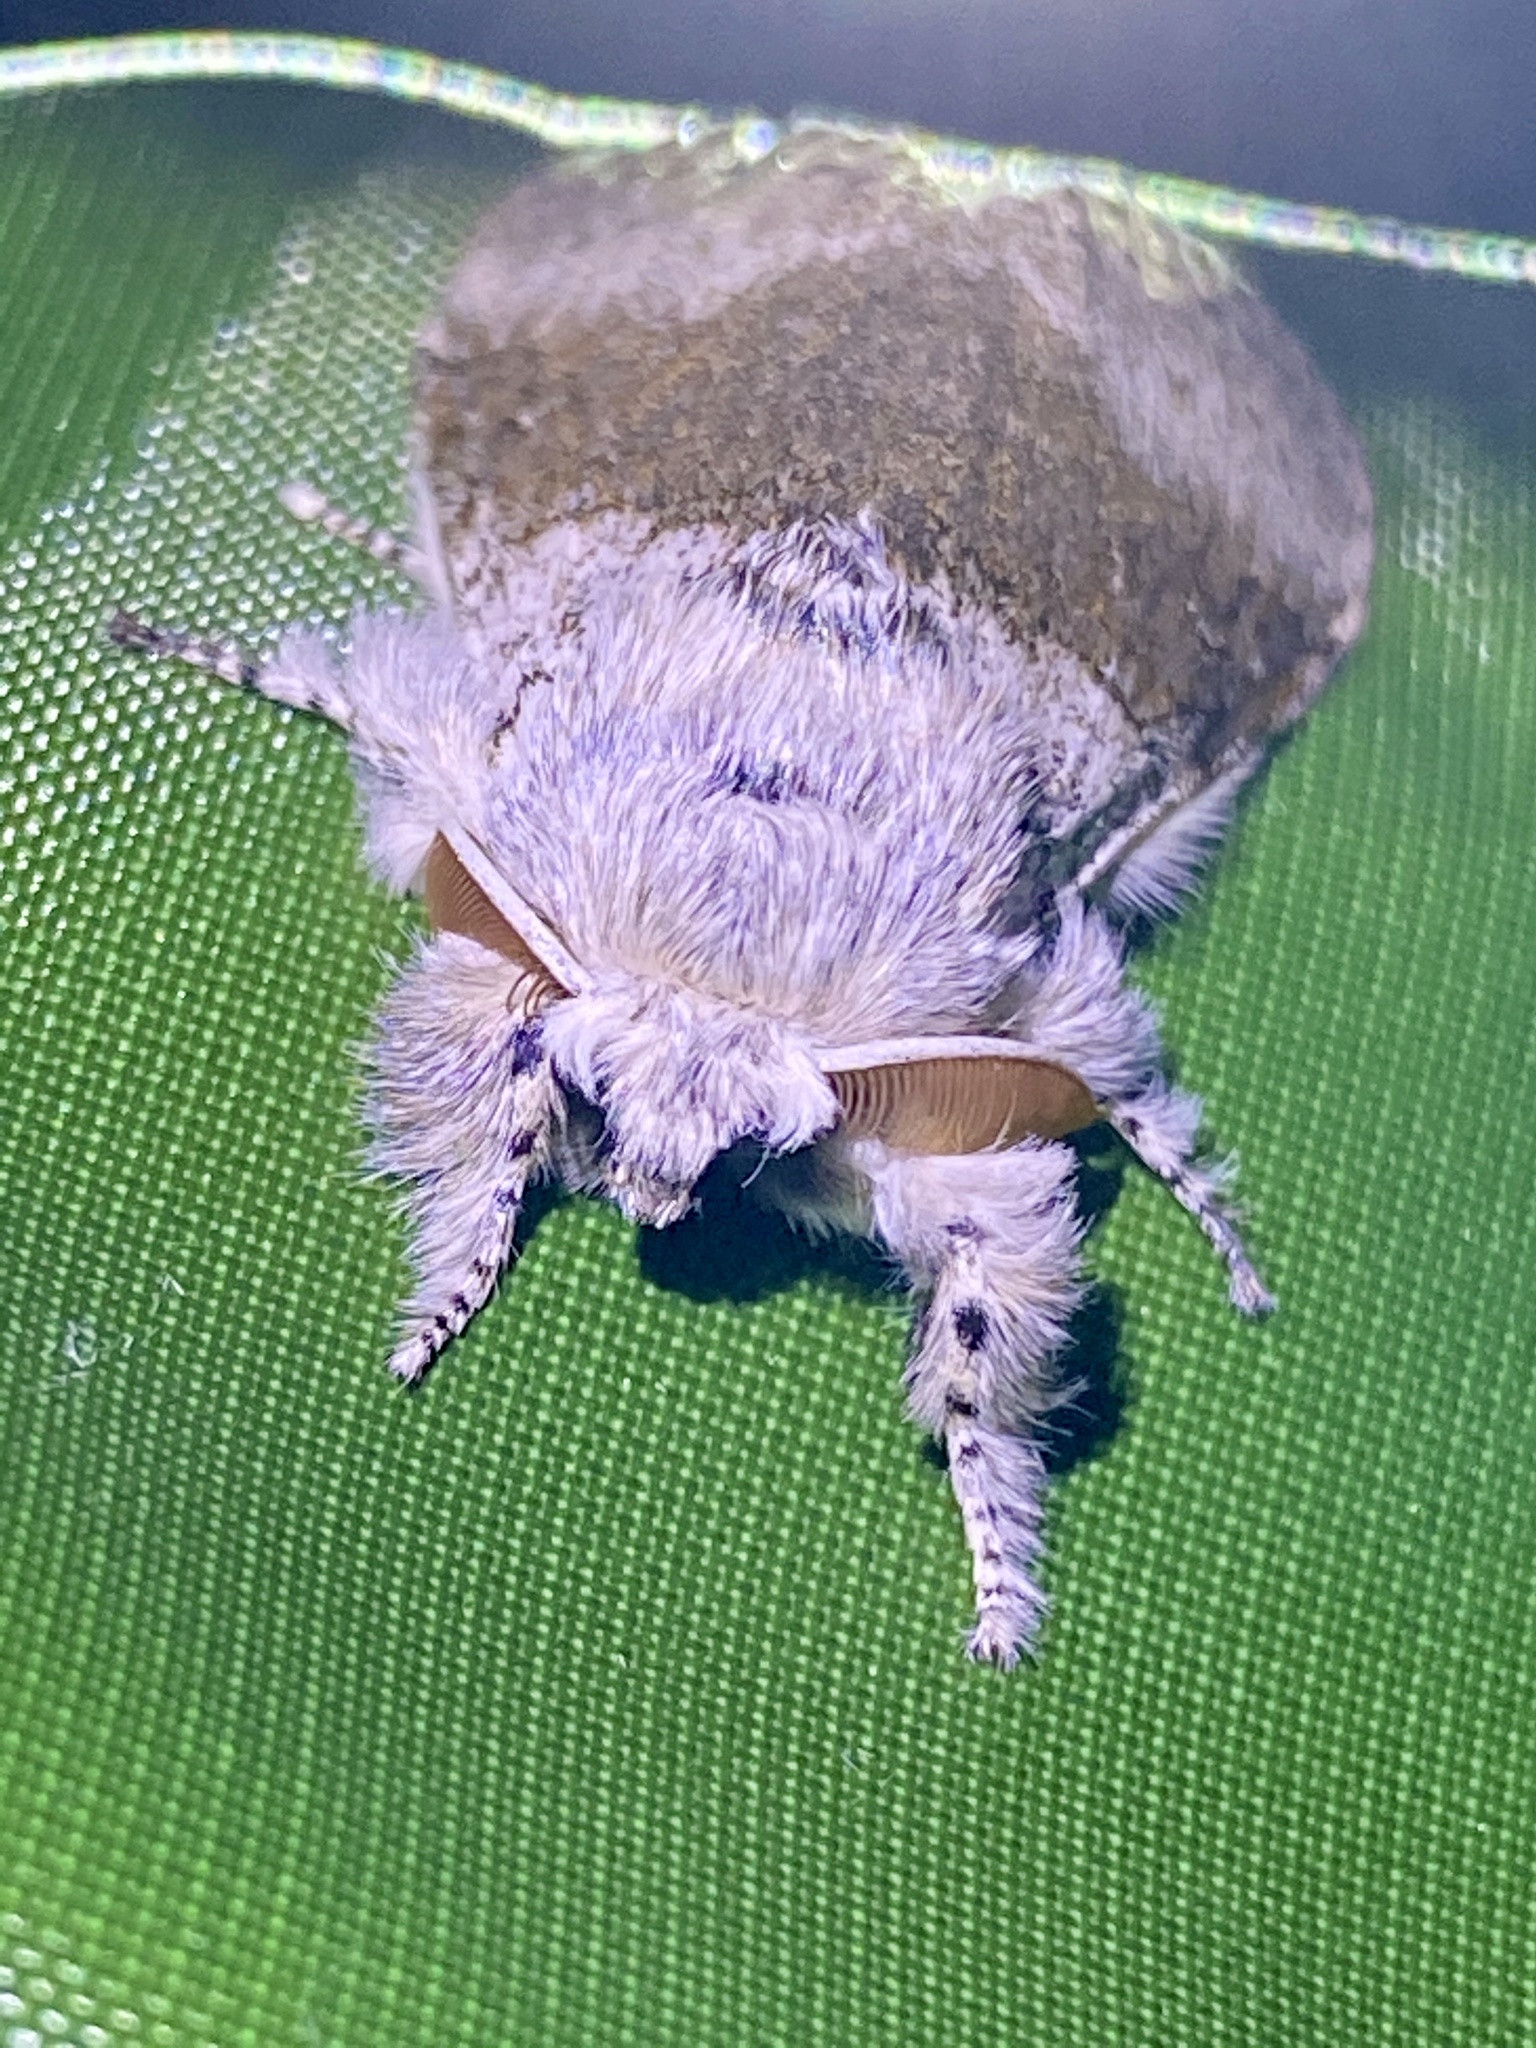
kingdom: Animalia
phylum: Arthropoda
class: Insecta
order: Lepidoptera
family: Erebidae
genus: Calliteara
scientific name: Calliteara
